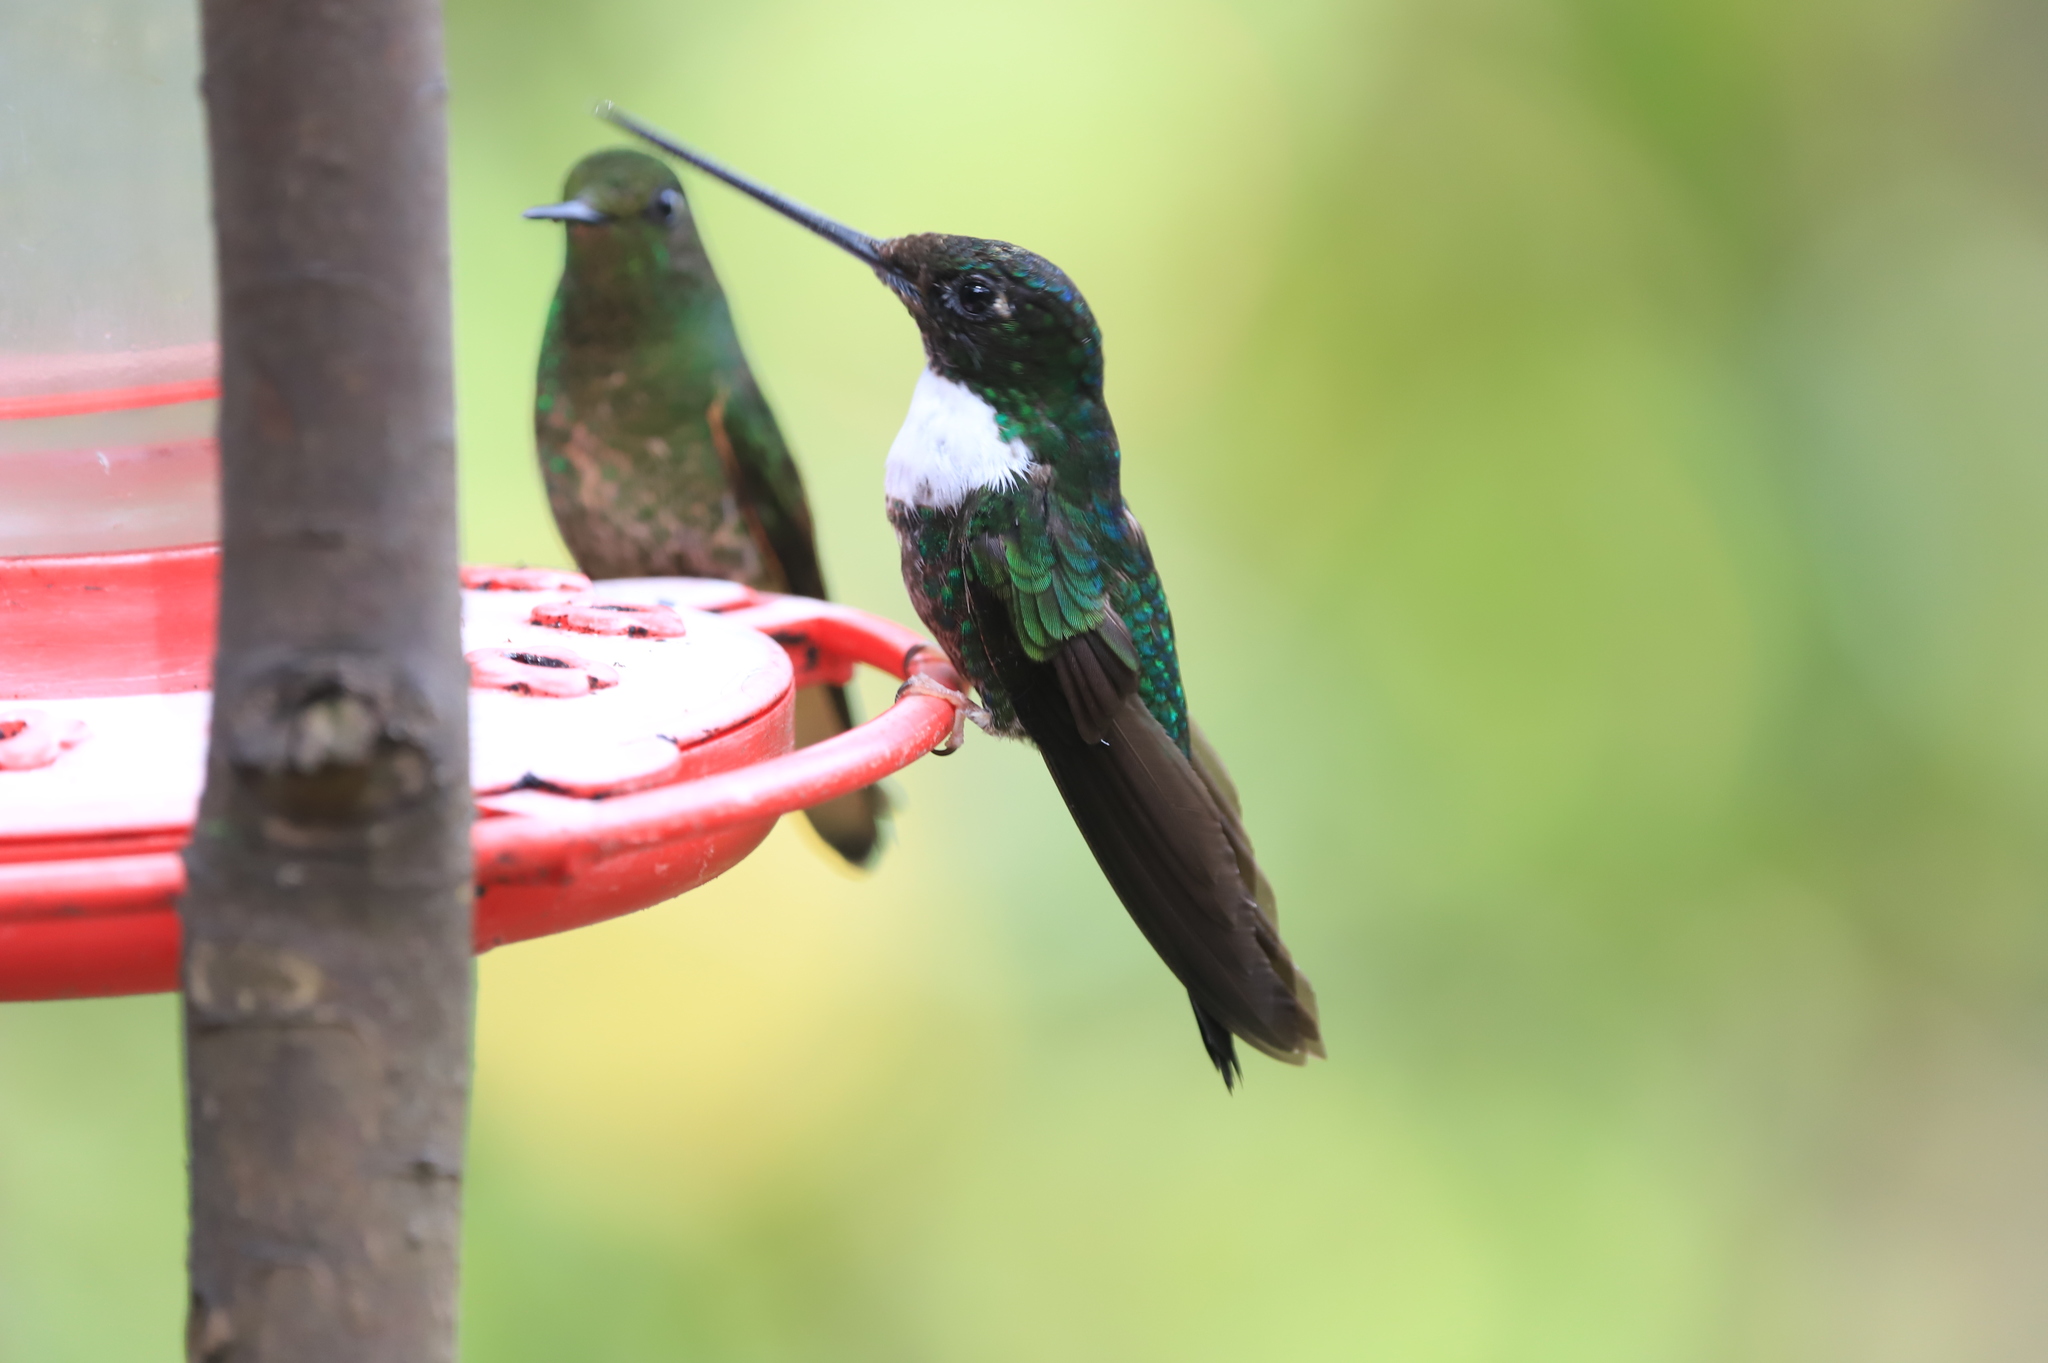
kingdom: Animalia
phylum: Chordata
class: Aves
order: Apodiformes
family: Trochilidae
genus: Coeligena
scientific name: Coeligena torquata
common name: Collared inca
